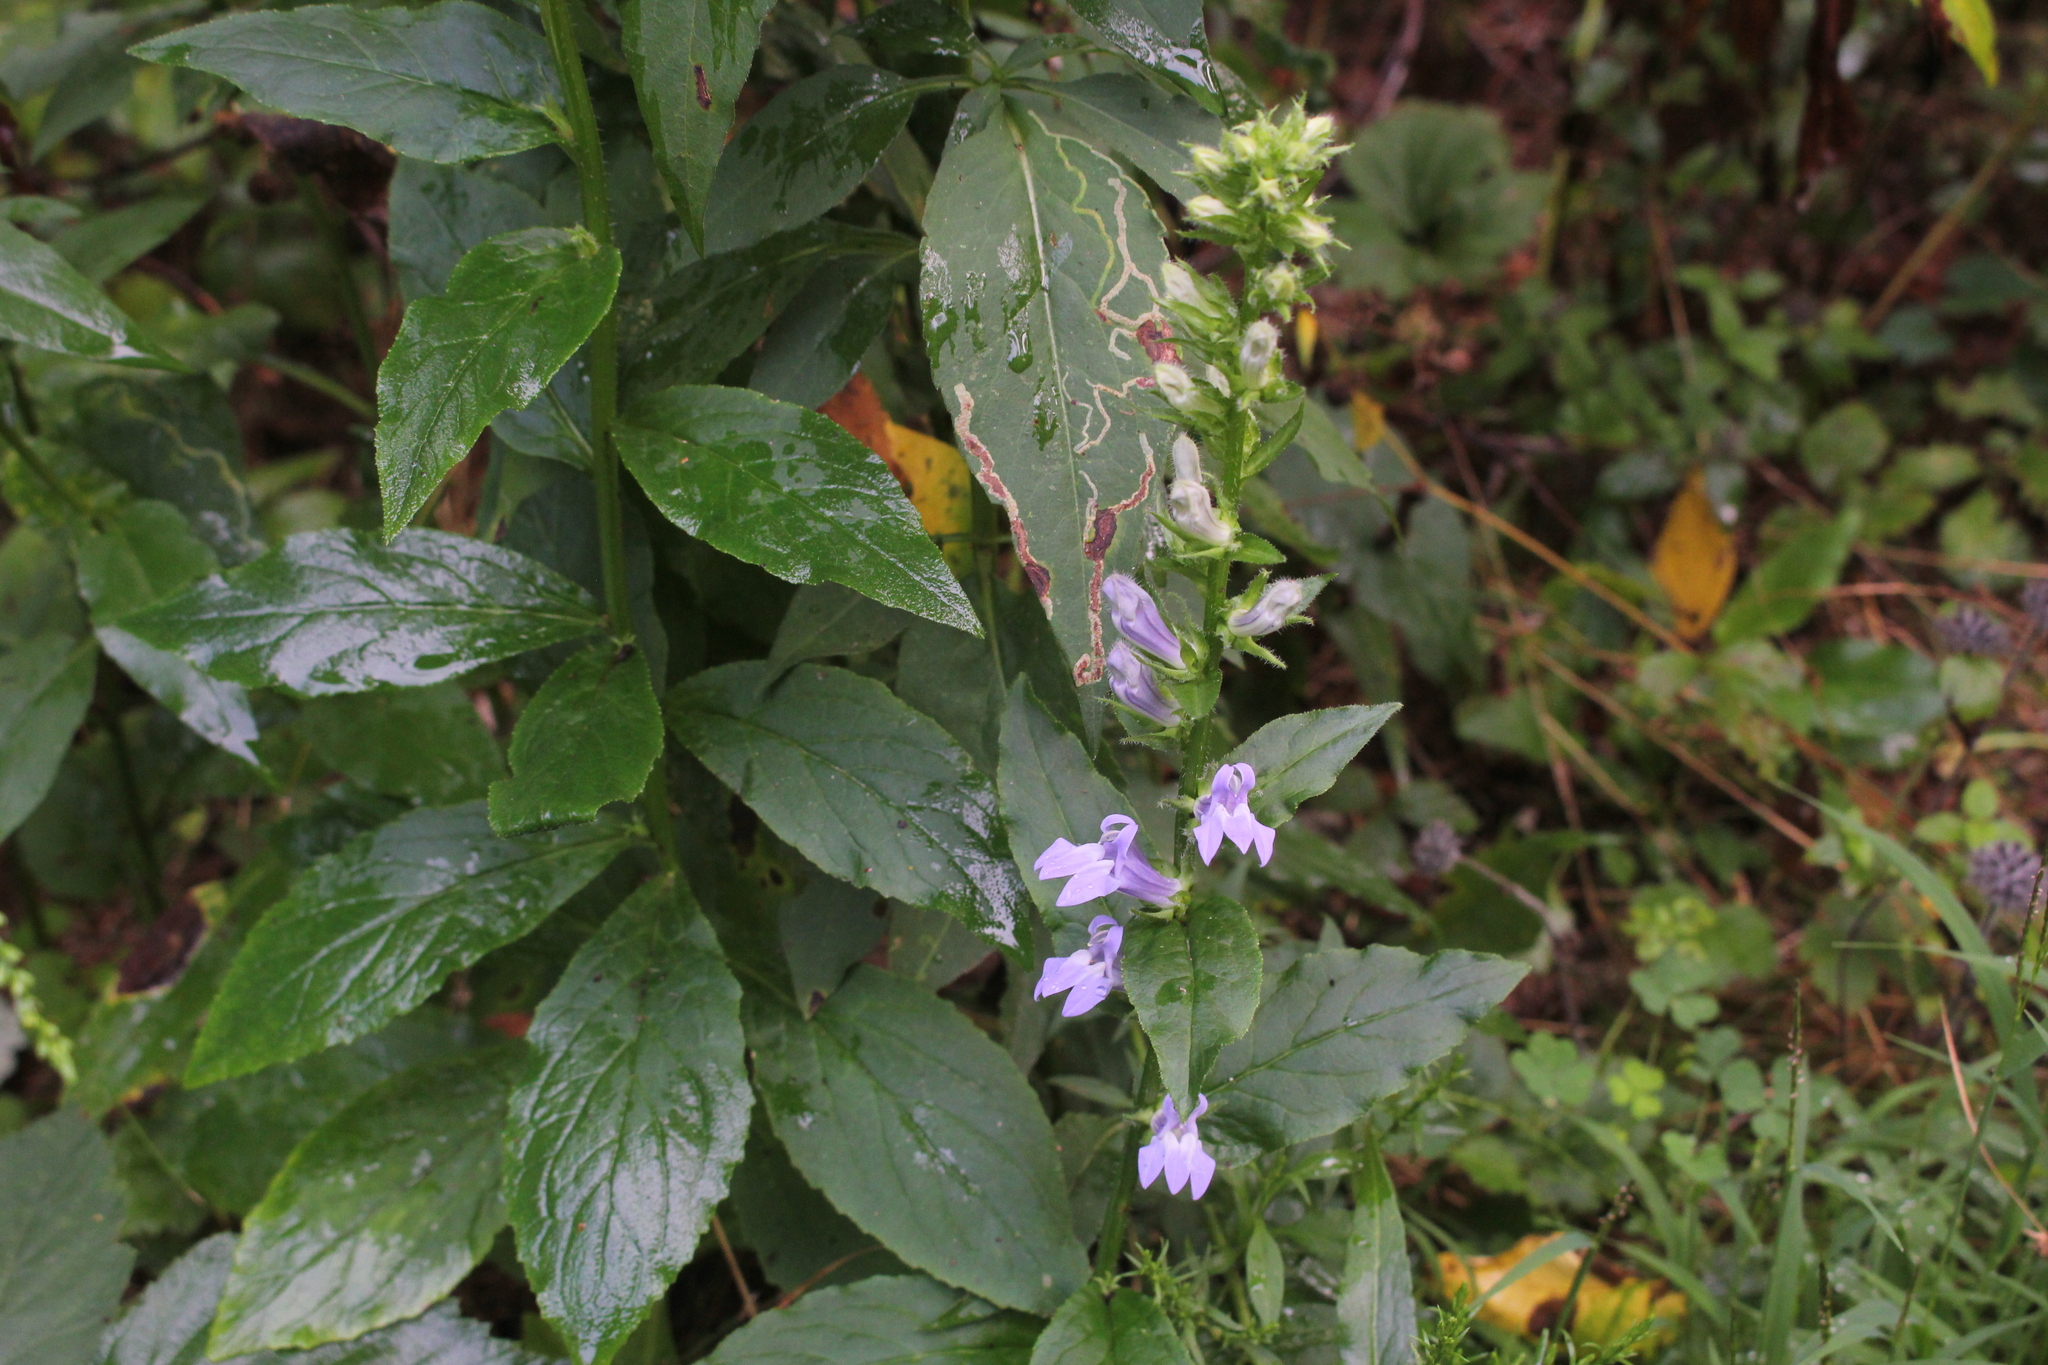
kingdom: Plantae
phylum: Tracheophyta
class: Magnoliopsida
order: Asterales
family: Campanulaceae
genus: Lobelia
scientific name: Lobelia siphilitica
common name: Great lobelia
